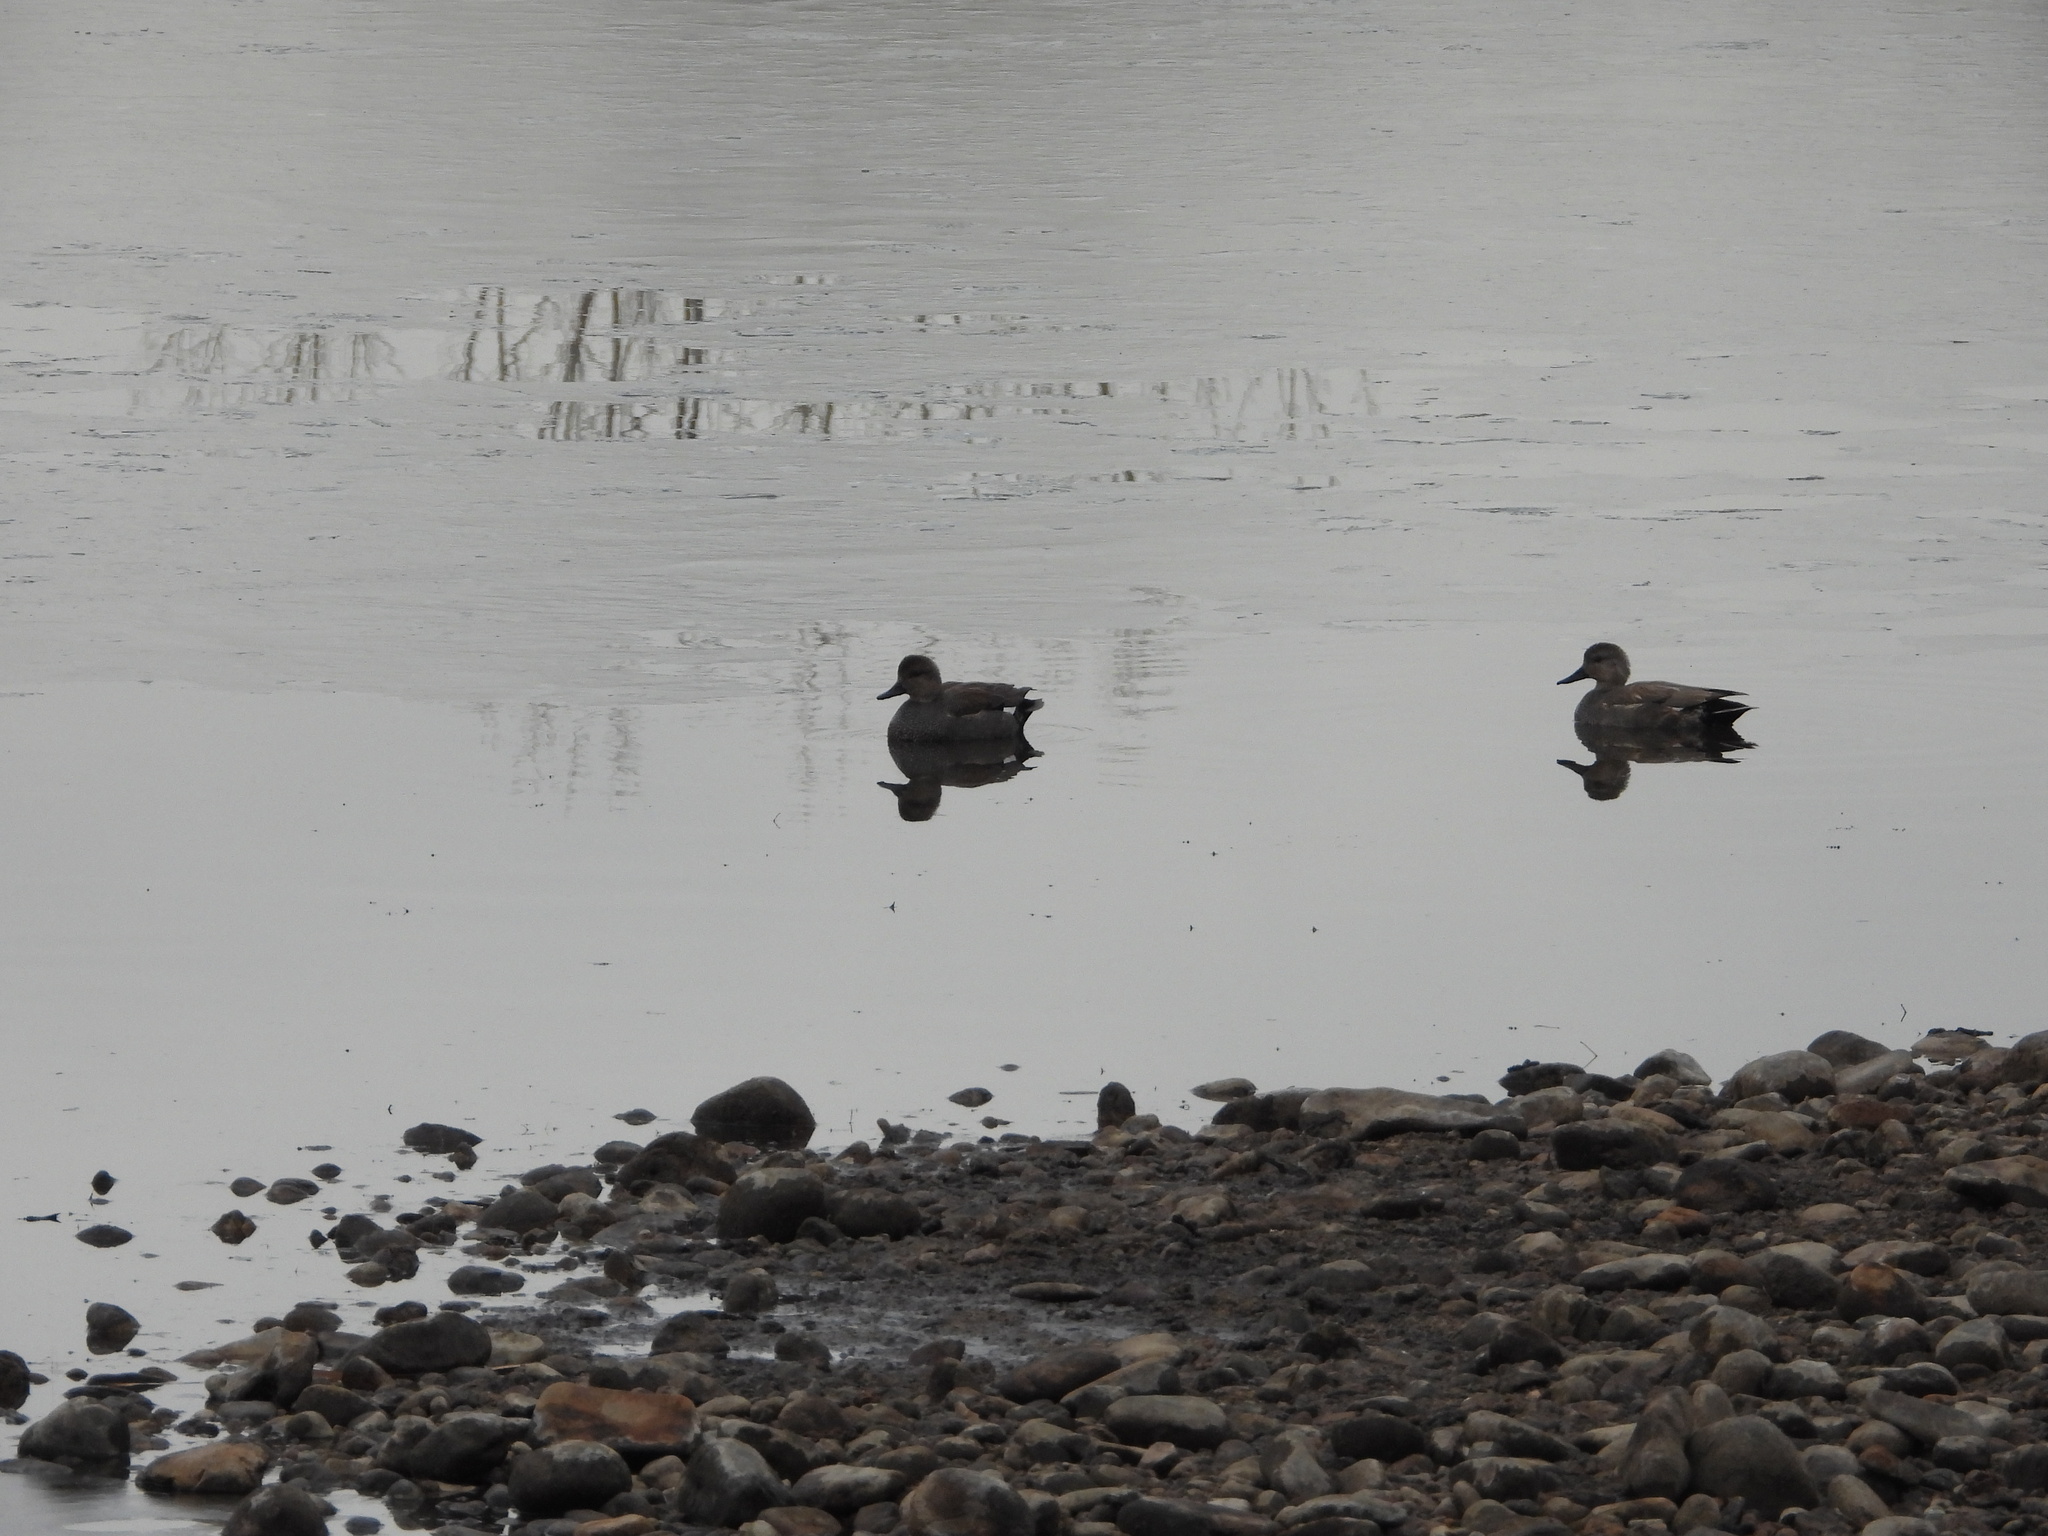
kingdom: Animalia
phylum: Chordata
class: Aves
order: Anseriformes
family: Anatidae
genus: Mareca
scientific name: Mareca strepera
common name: Gadwall
